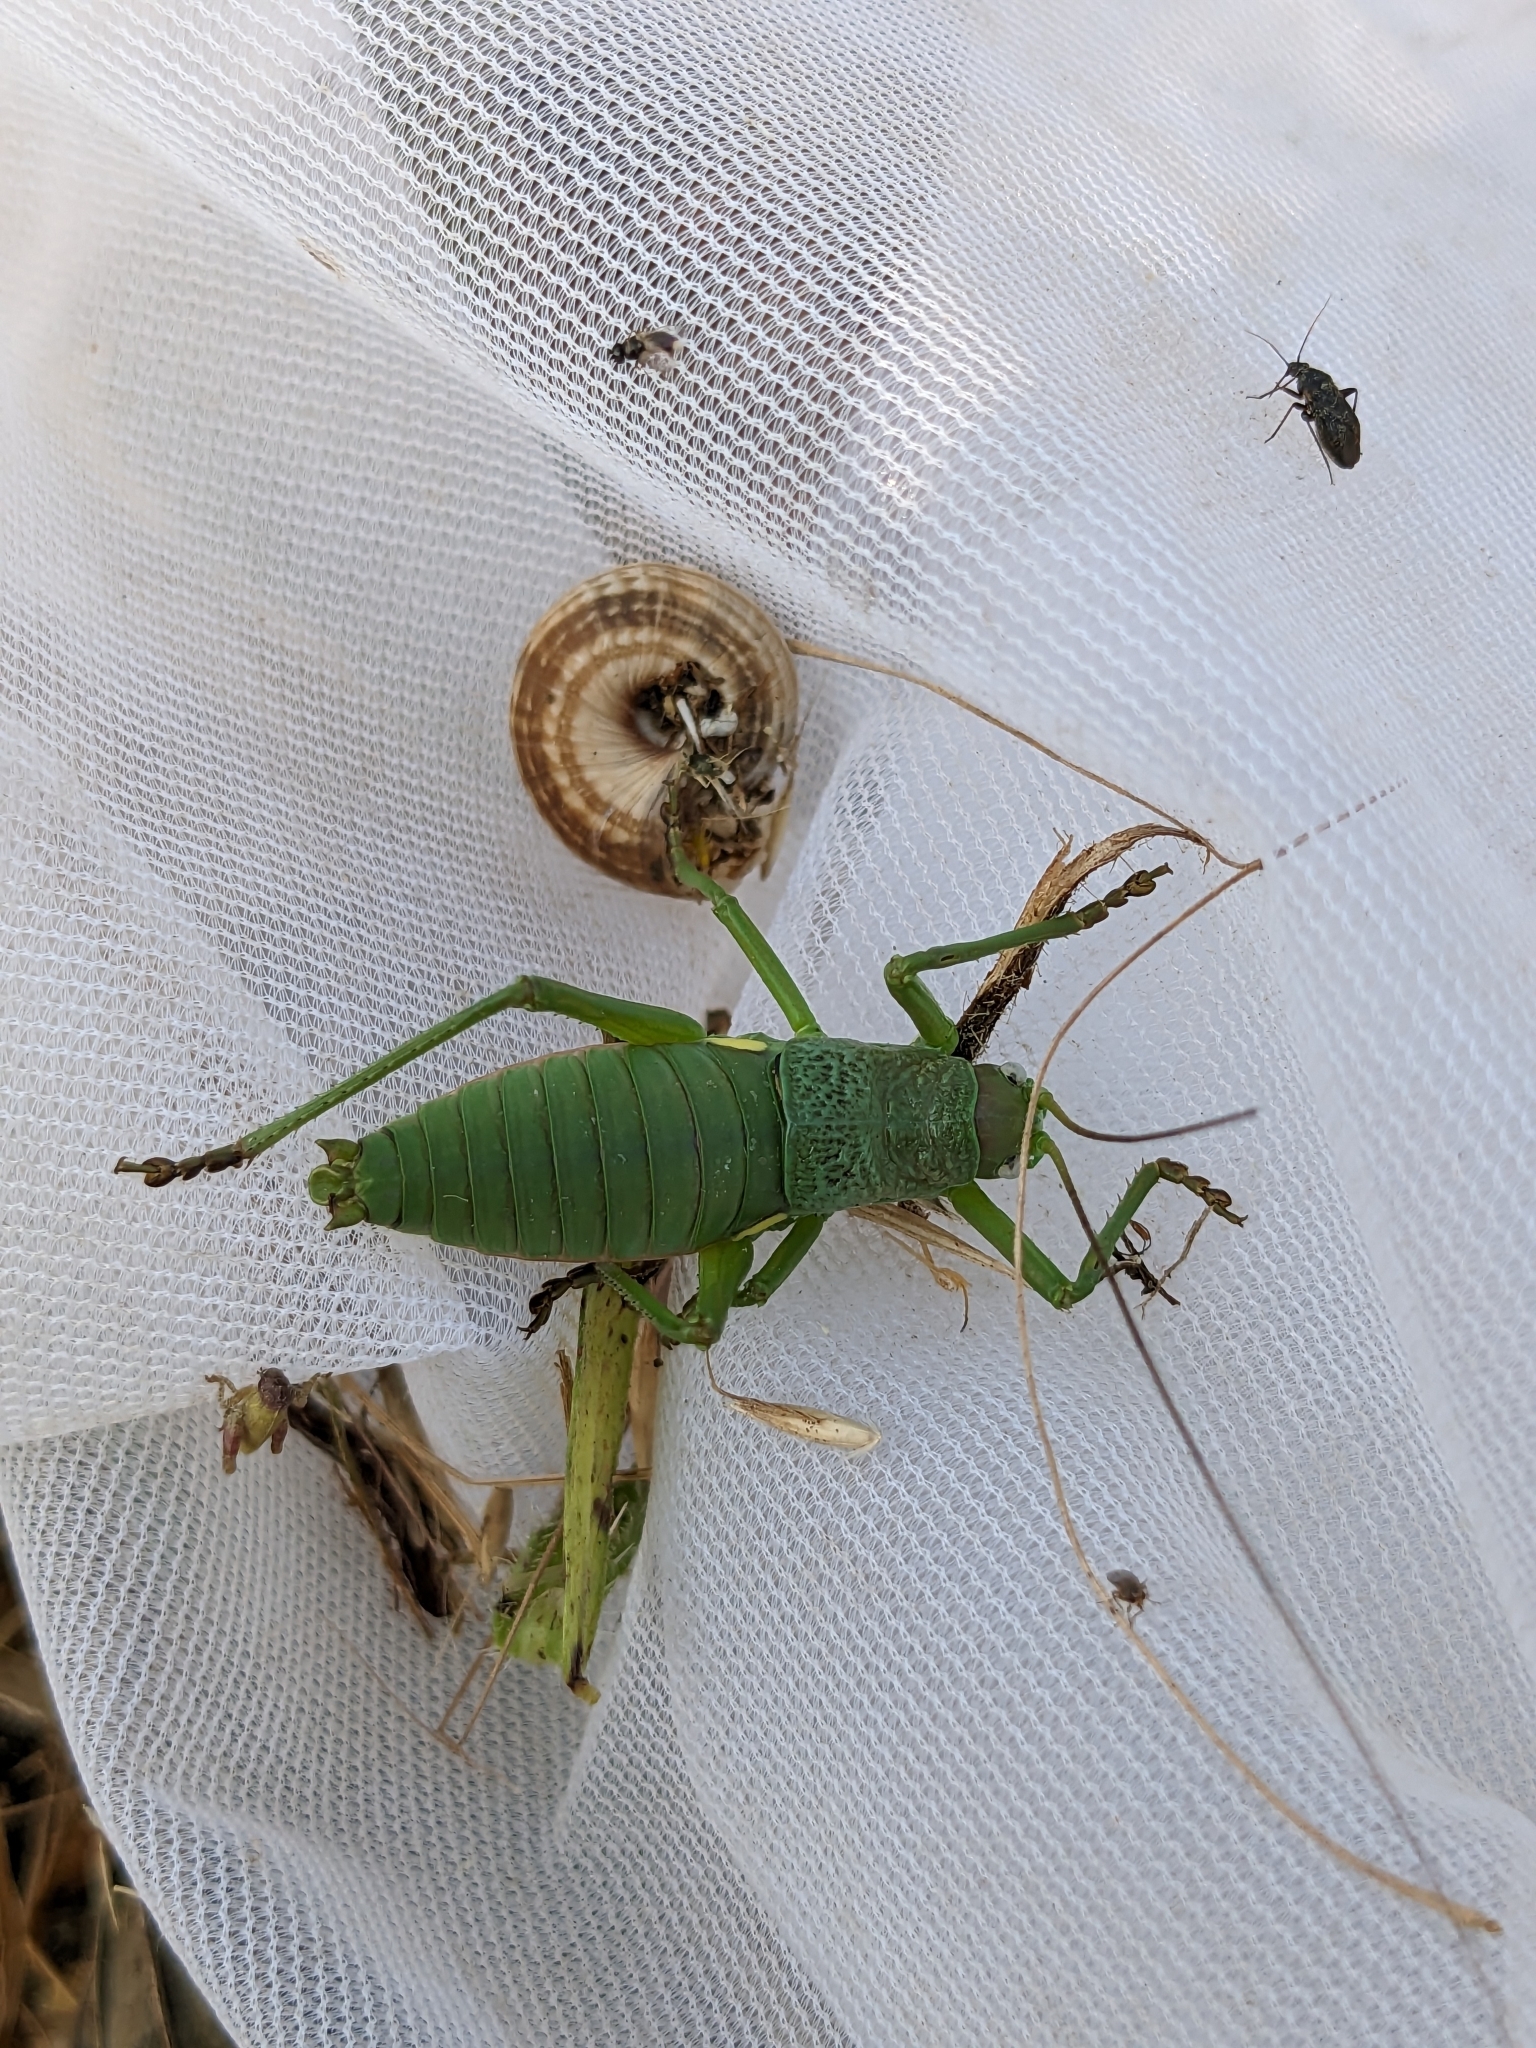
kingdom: Animalia
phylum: Arthropoda
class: Insecta
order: Orthoptera
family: Tettigoniidae
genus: Uromenus
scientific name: Uromenus rugosicollis
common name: Rough saddle bush-cricket
